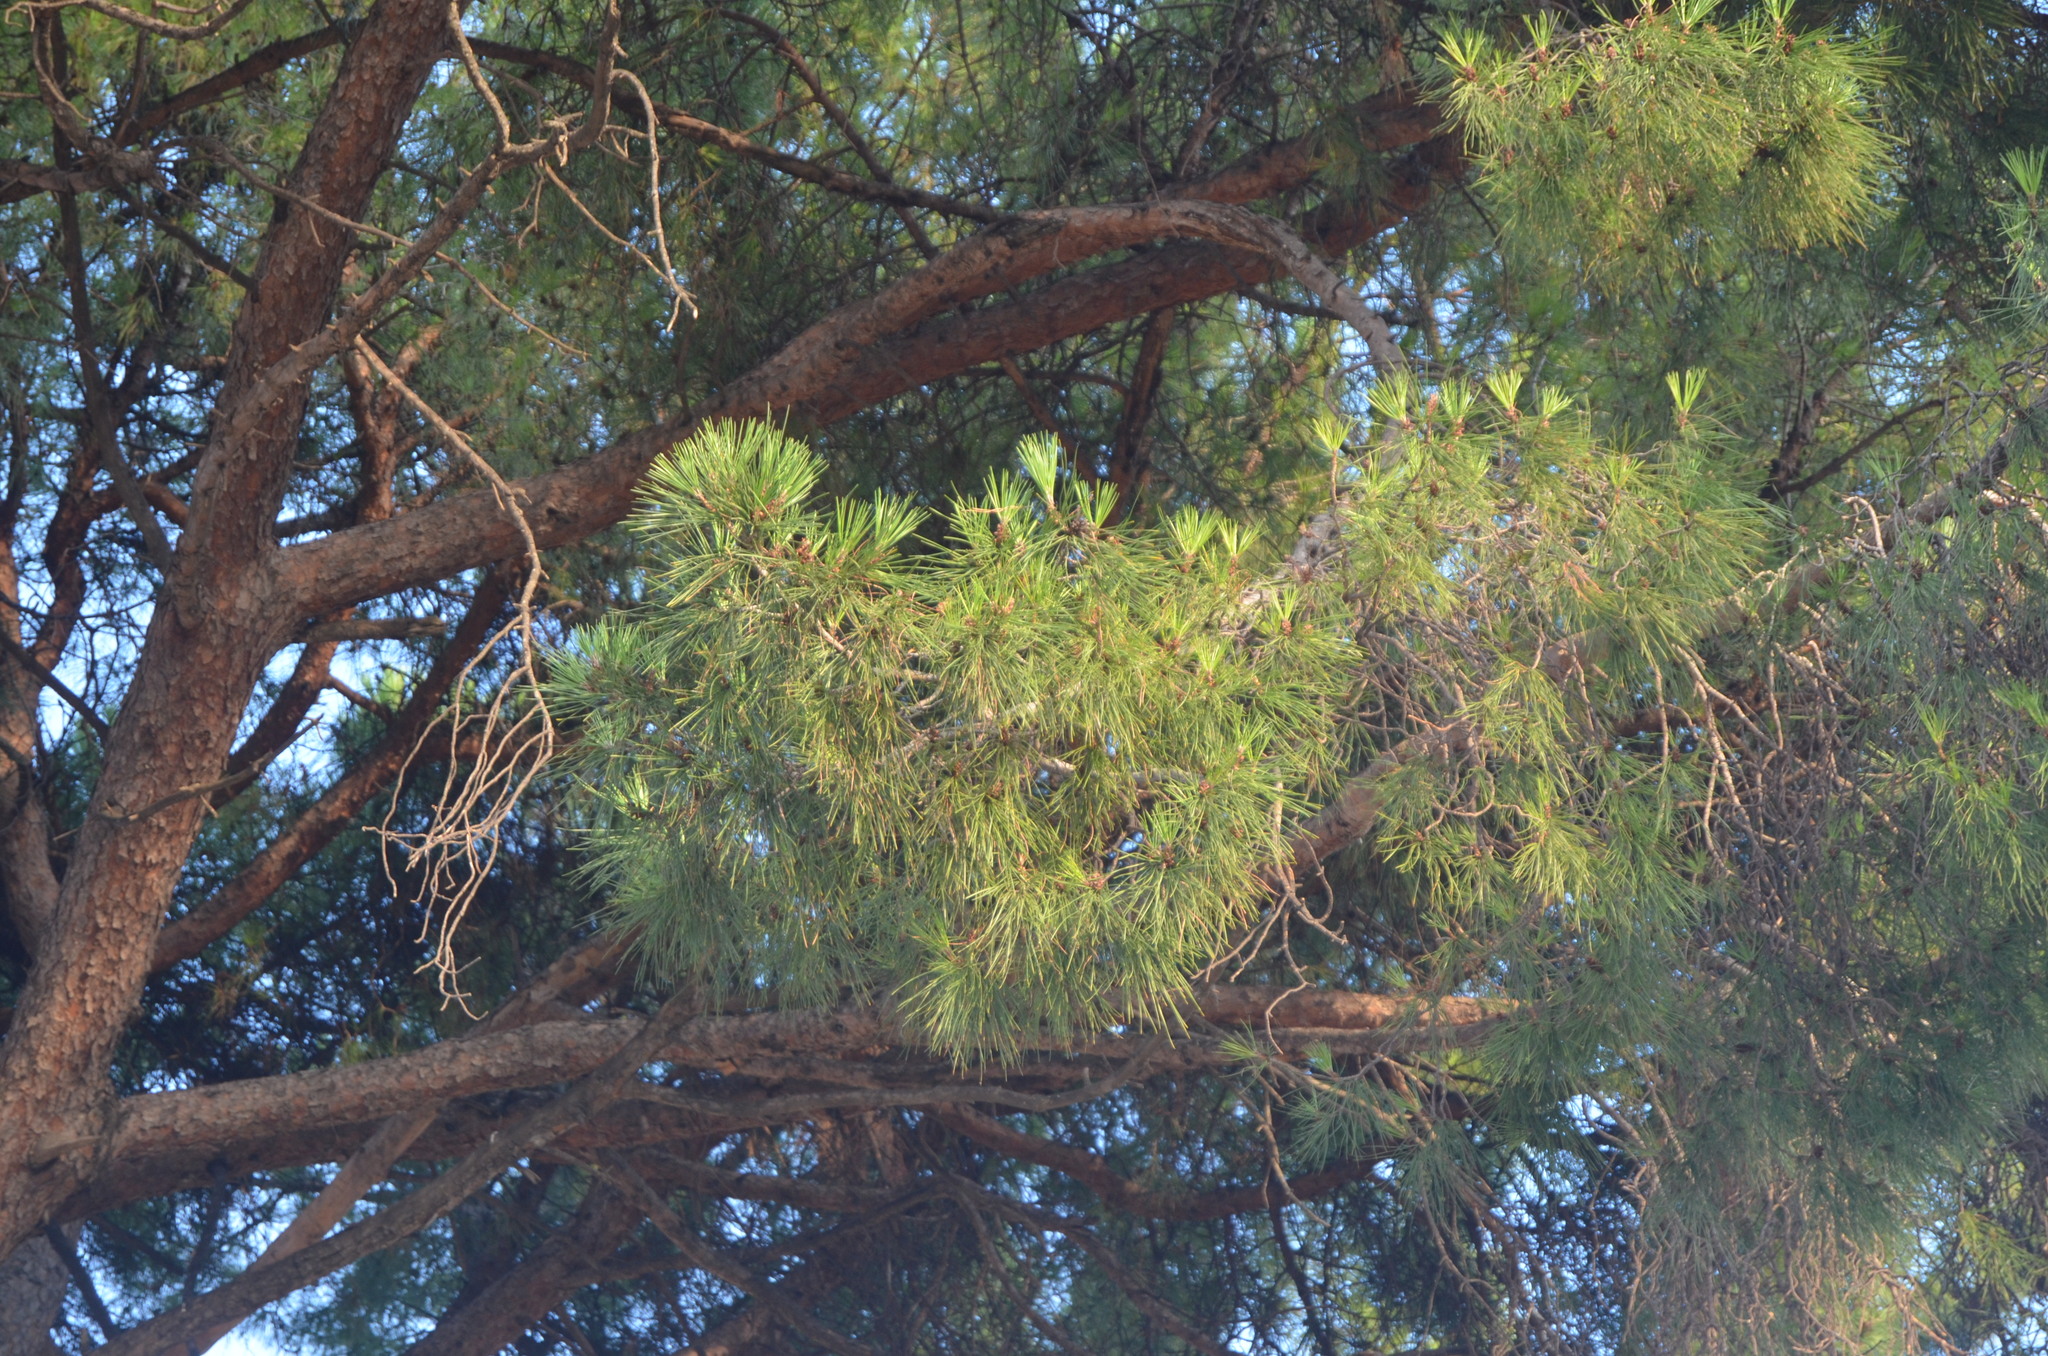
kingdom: Plantae
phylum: Tracheophyta
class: Pinopsida
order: Pinales
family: Pinaceae
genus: Pinus
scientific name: Pinus pinea
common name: Italian stone pine
